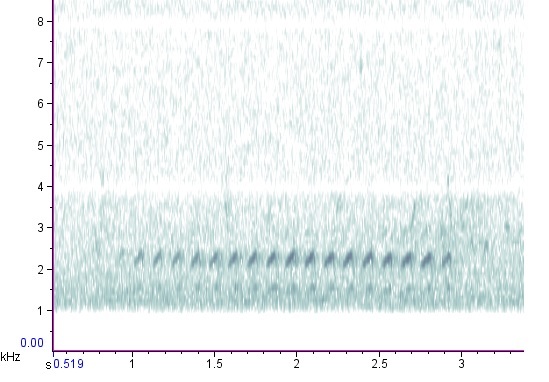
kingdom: Animalia
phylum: Chordata
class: Aves
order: Passeriformes
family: Sittidae
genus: Sitta
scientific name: Sitta carolinensis
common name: White-breasted nuthatch
